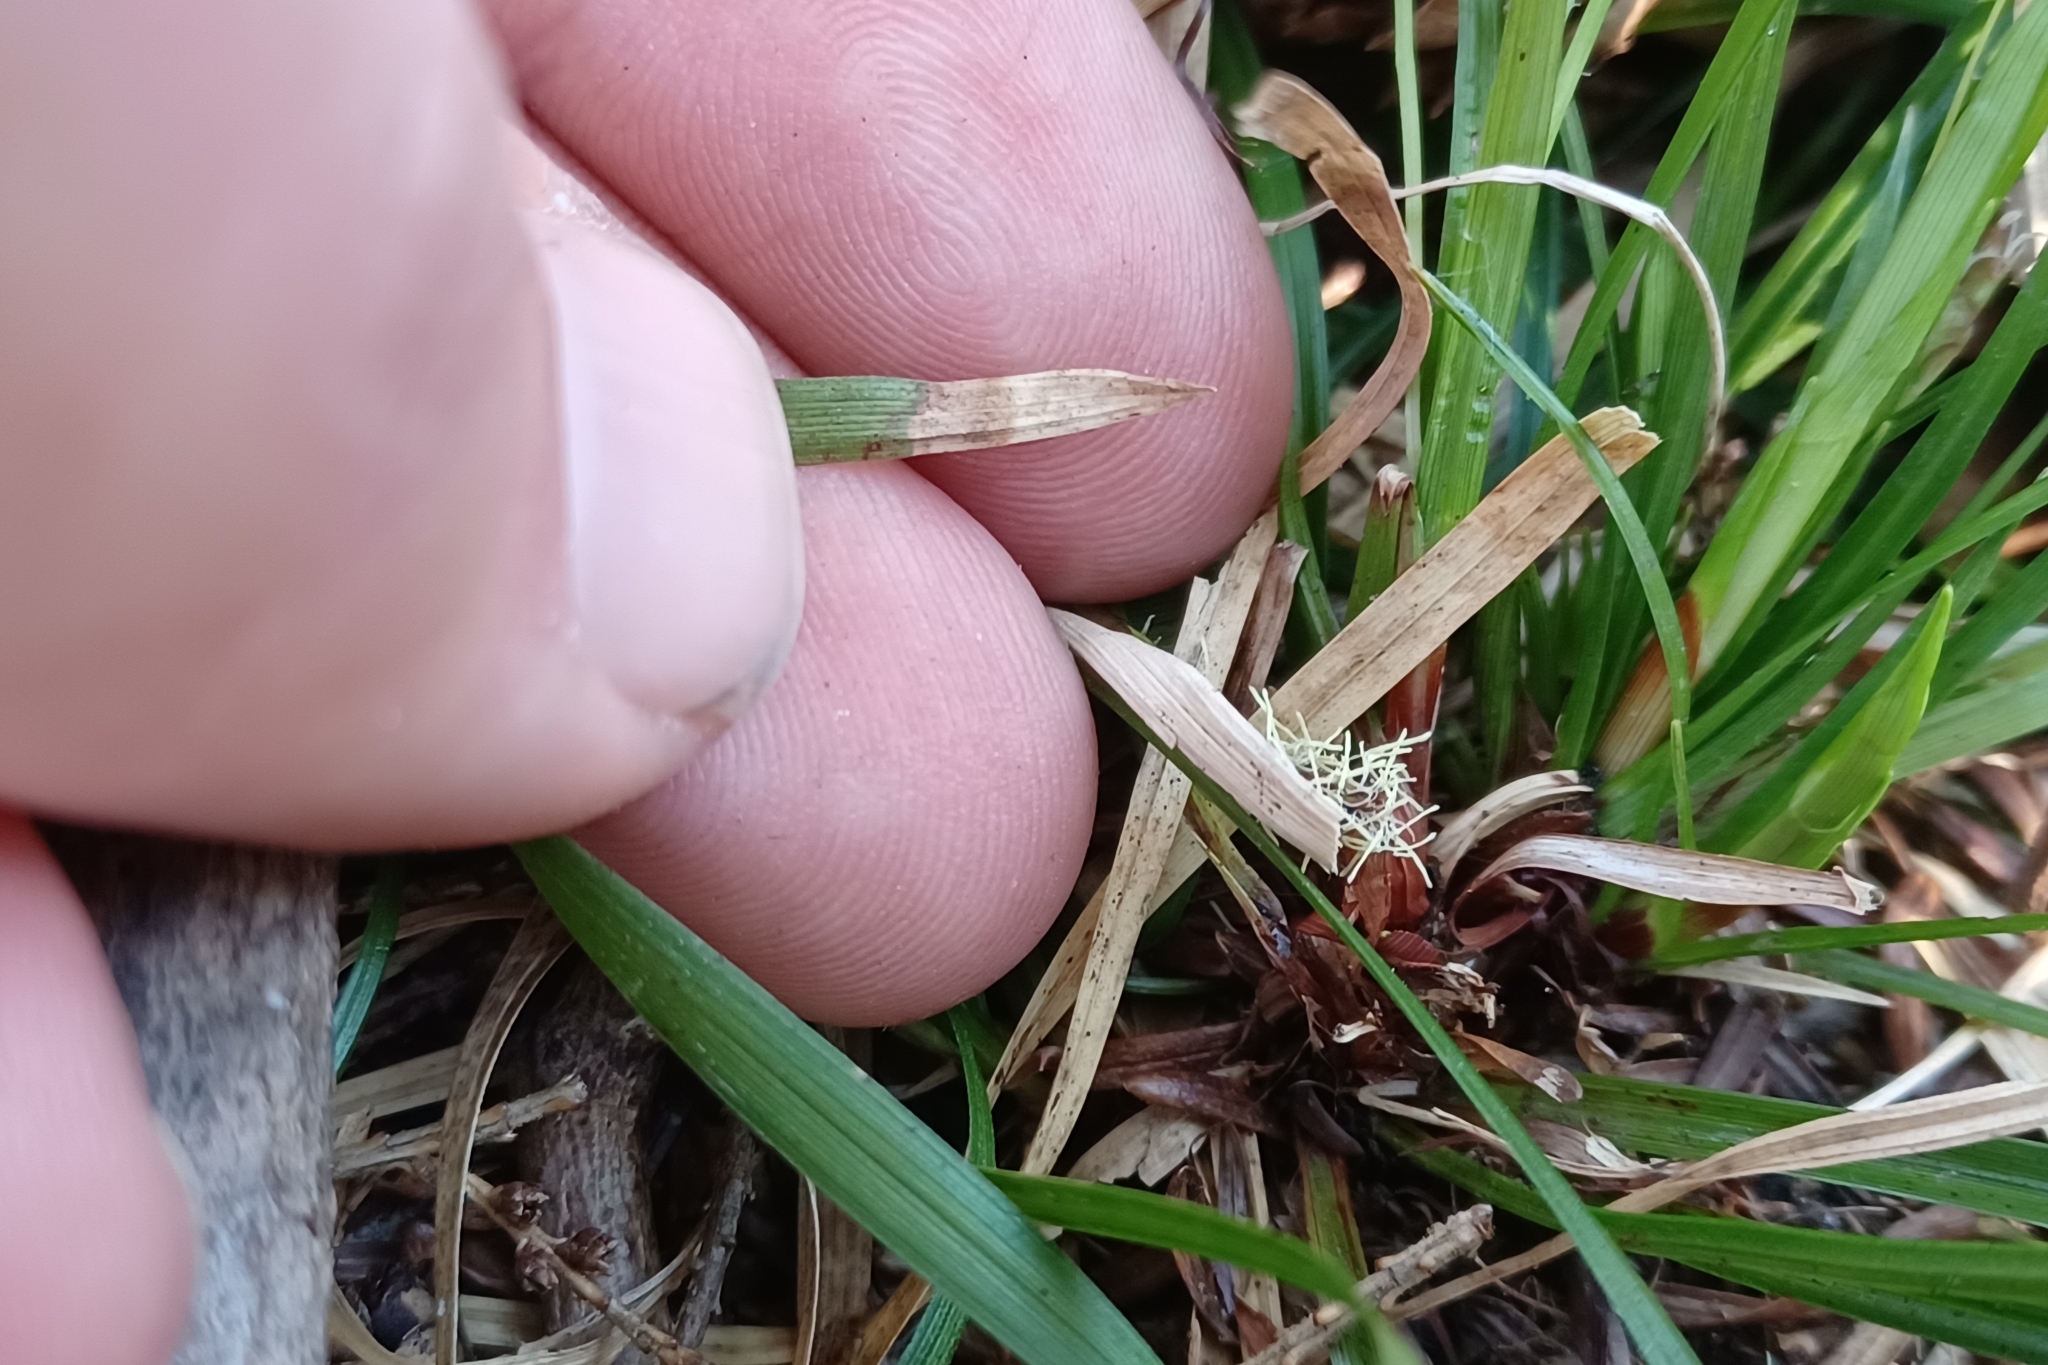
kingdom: Plantae
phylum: Tracheophyta
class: Liliopsida
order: Poales
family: Cyperaceae
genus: Carex
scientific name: Carex pedunculata
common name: Pedunculate sedge
